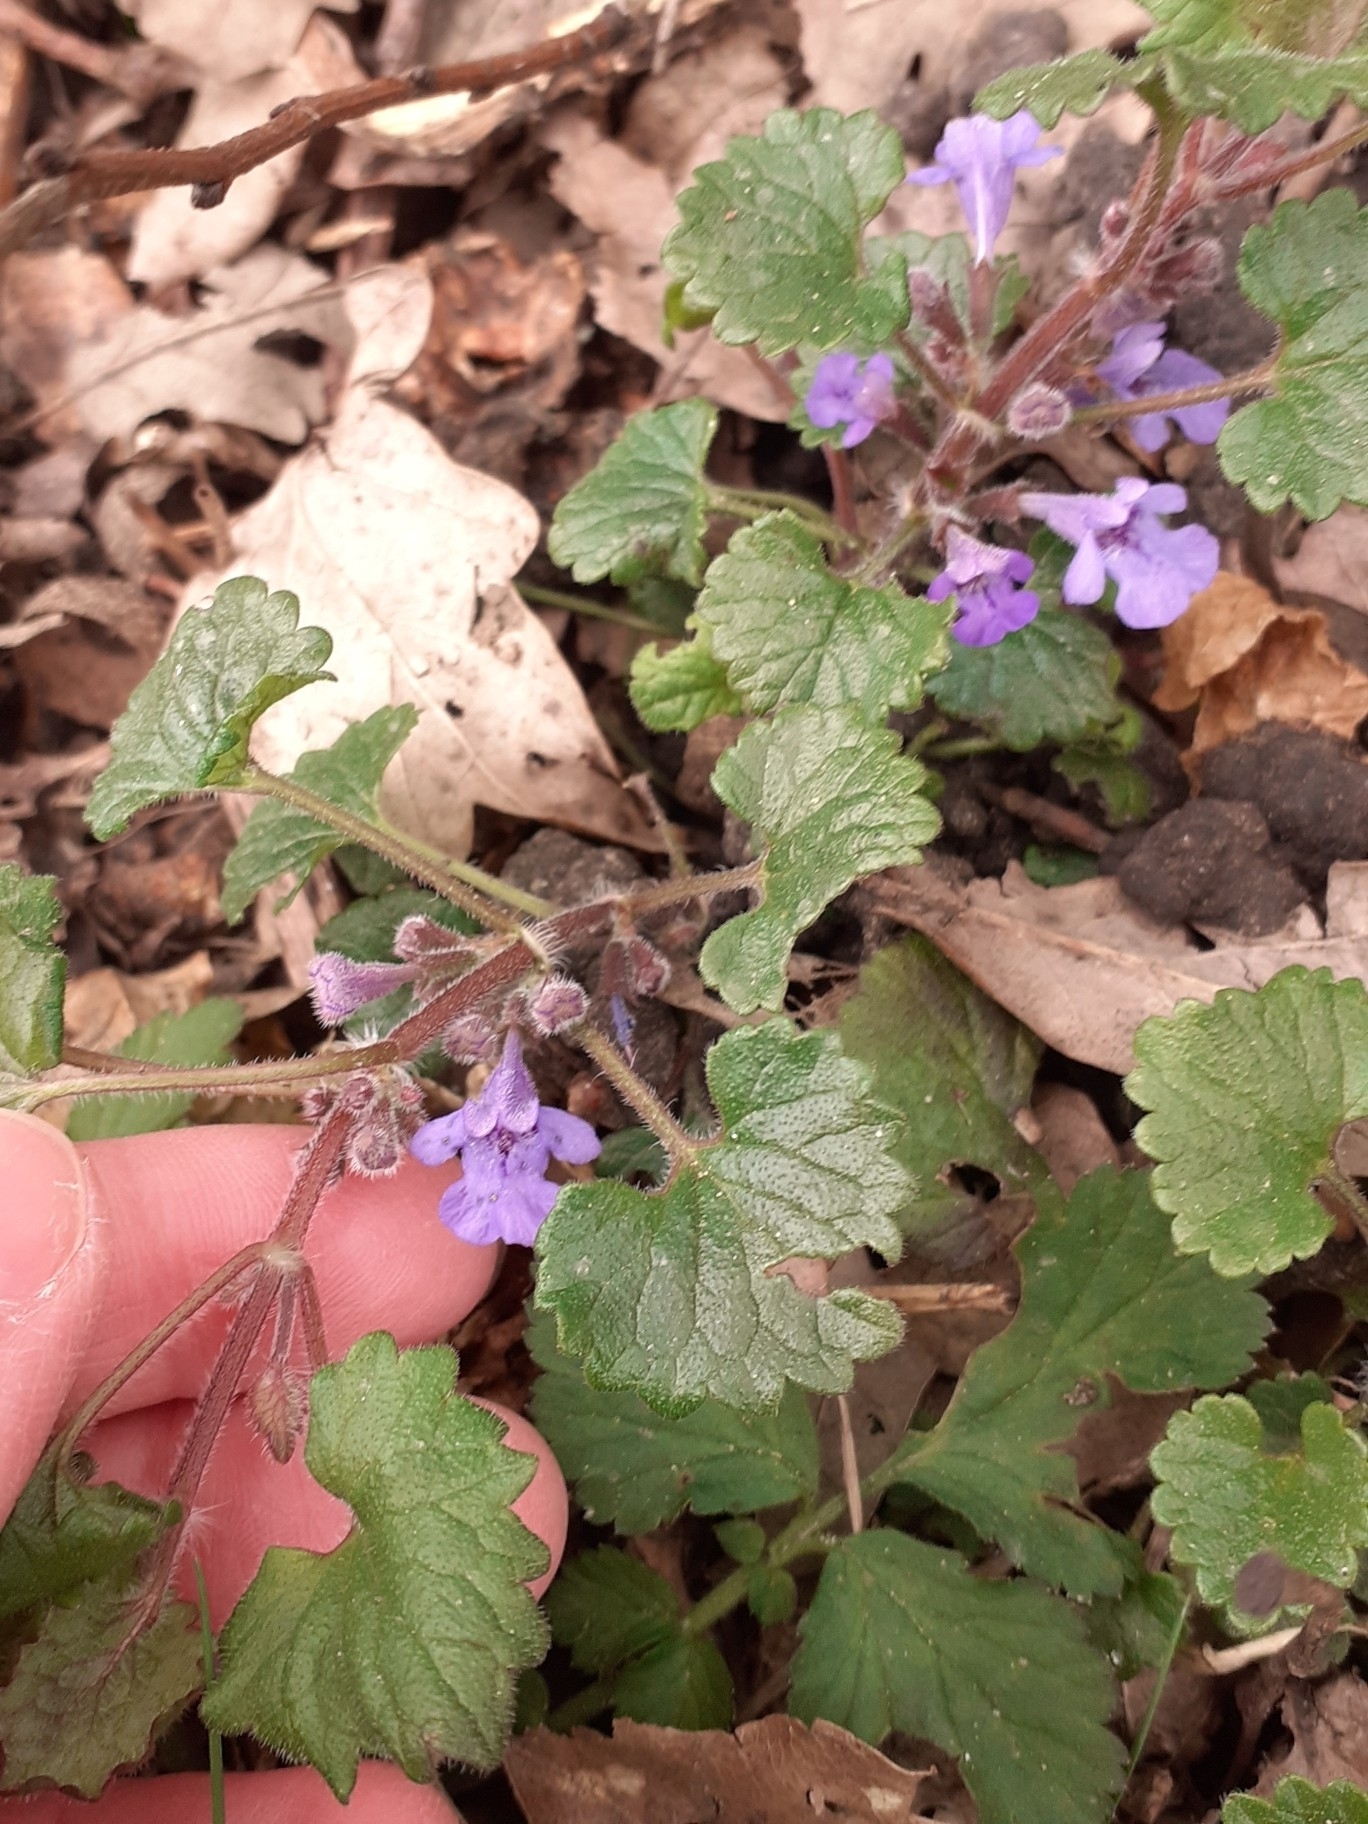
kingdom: Plantae
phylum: Tracheophyta
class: Magnoliopsida
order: Lamiales
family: Lamiaceae
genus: Glechoma
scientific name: Glechoma hederacea
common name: Ground ivy
